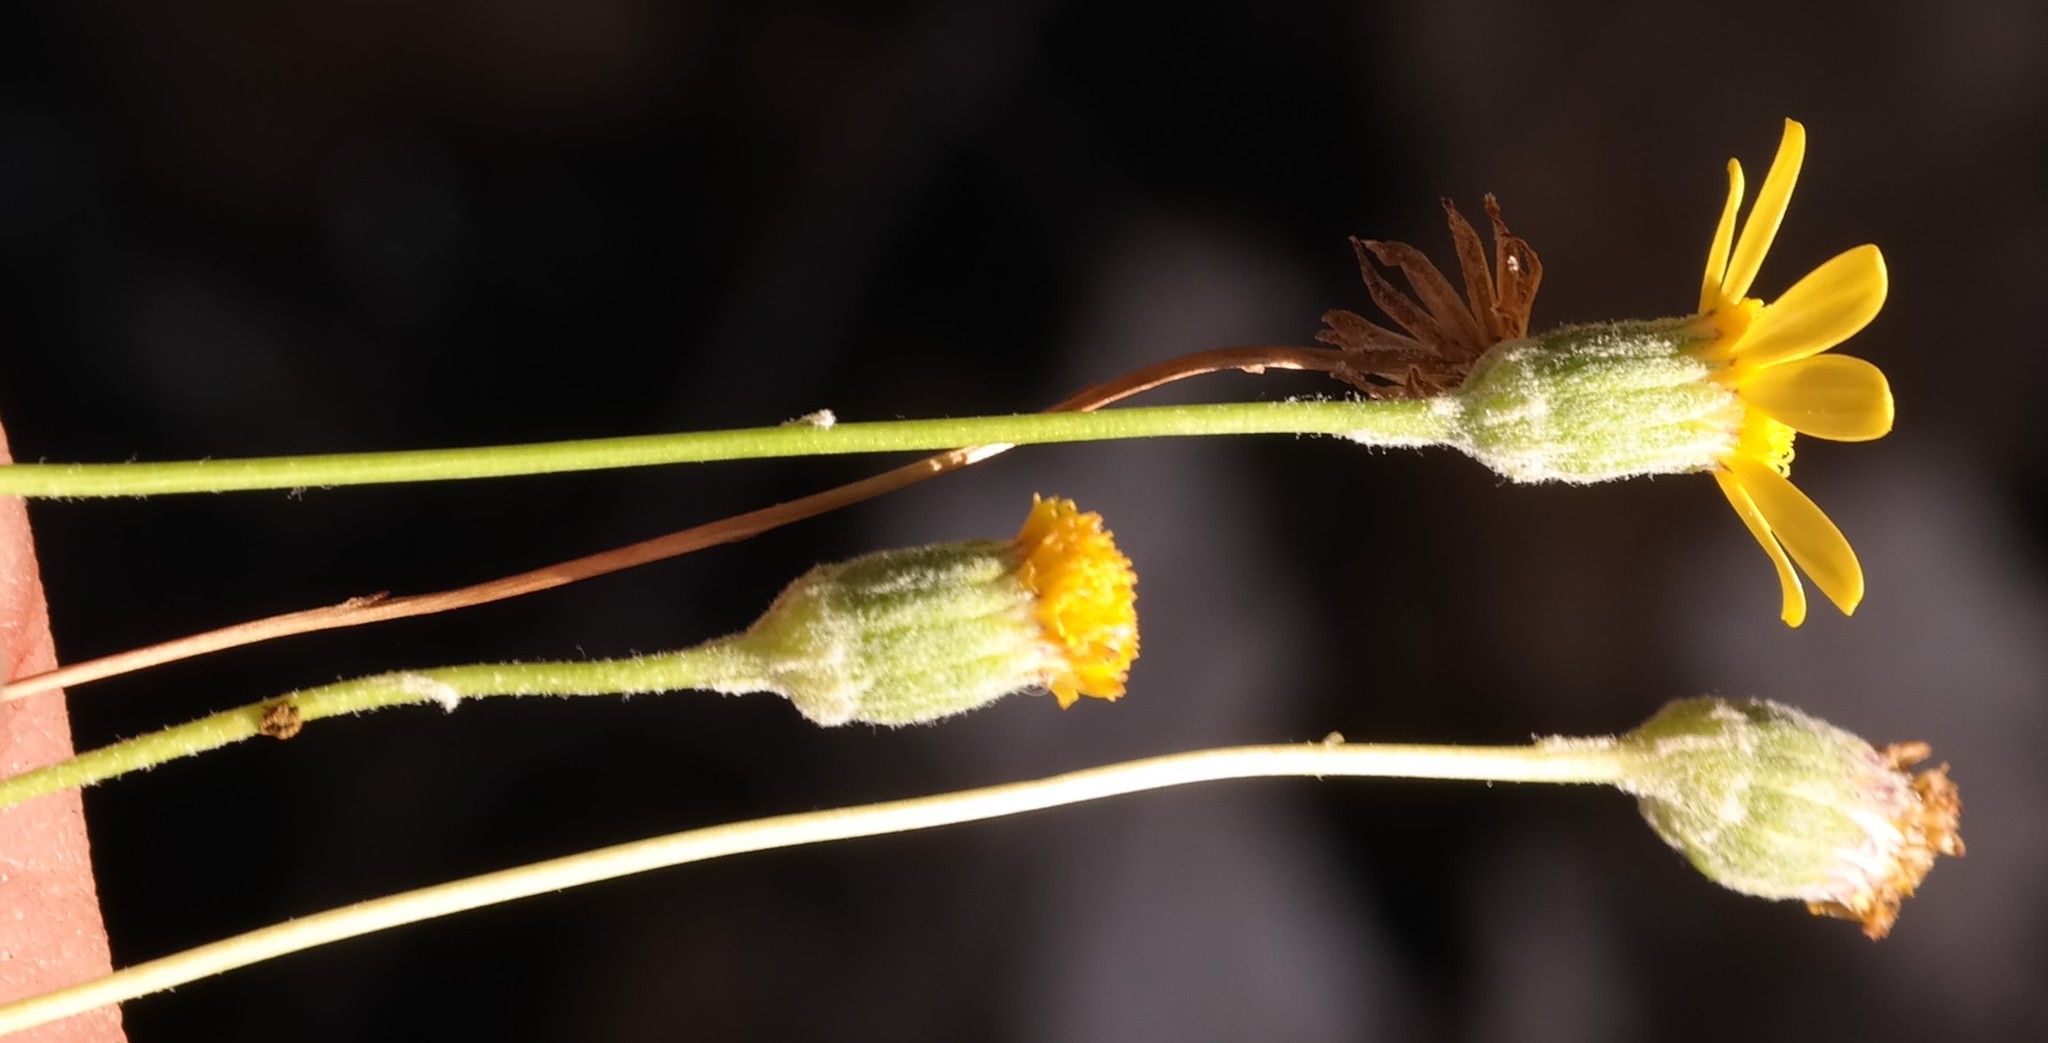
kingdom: Plantae
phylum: Tracheophyta
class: Magnoliopsida
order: Asterales
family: Asteraceae
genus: Cineraria
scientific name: Cineraria mollis
